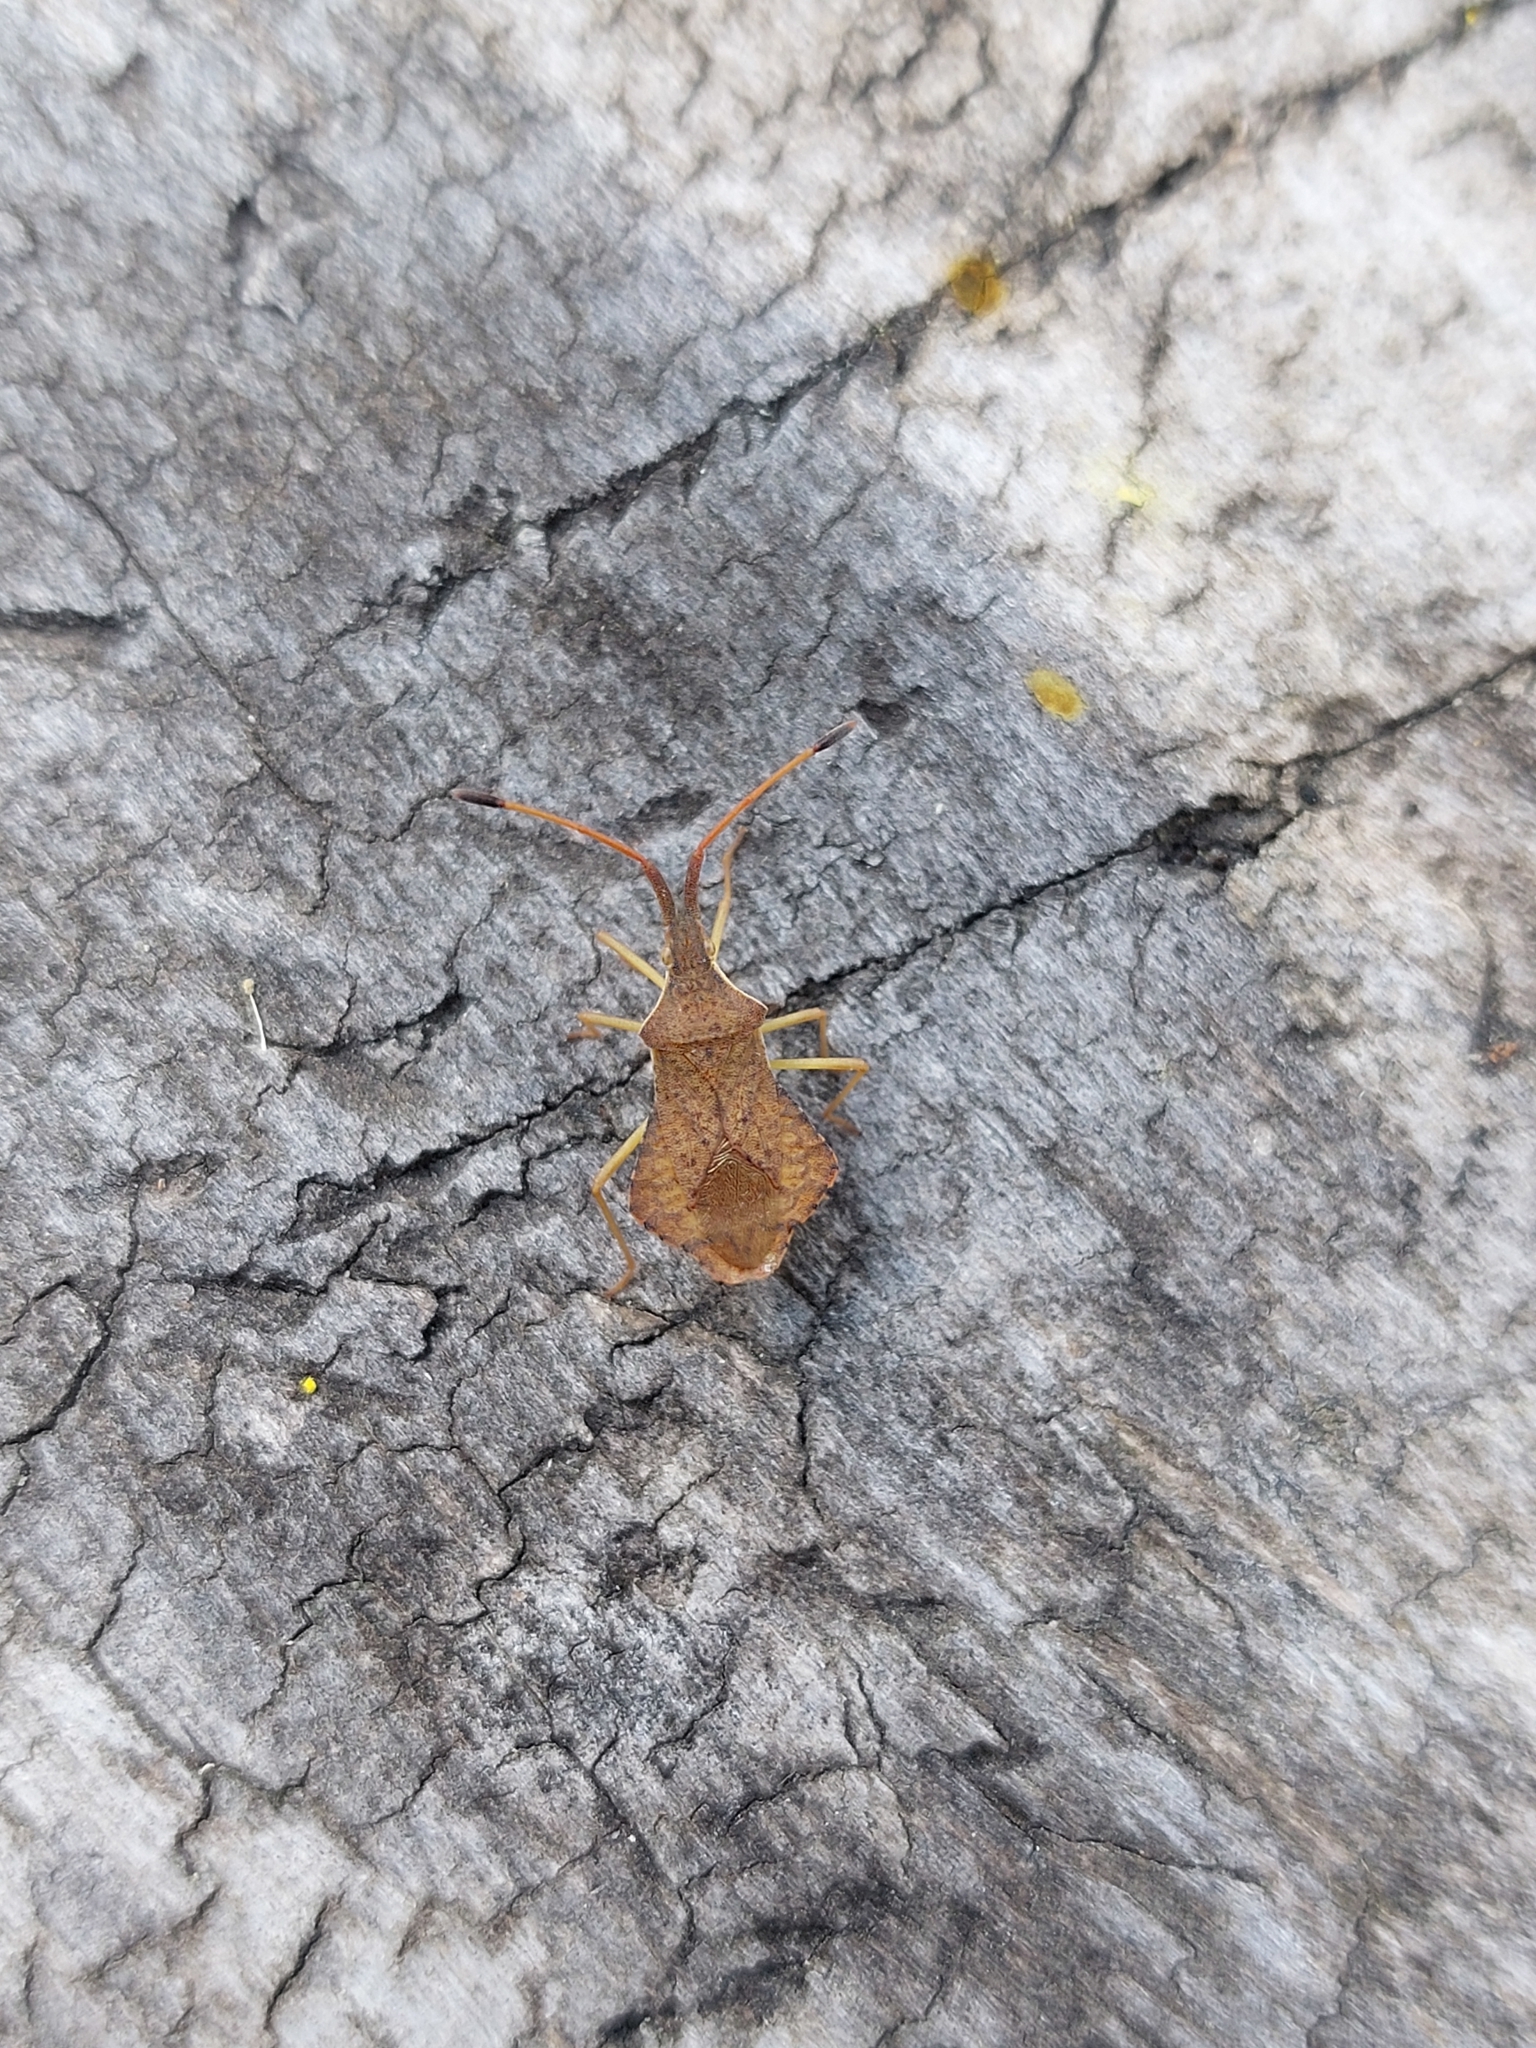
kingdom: Animalia
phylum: Arthropoda
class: Insecta
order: Hemiptera
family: Coreidae
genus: Syromastus
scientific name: Syromastus rhombeus
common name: Rhombic leatherbug
